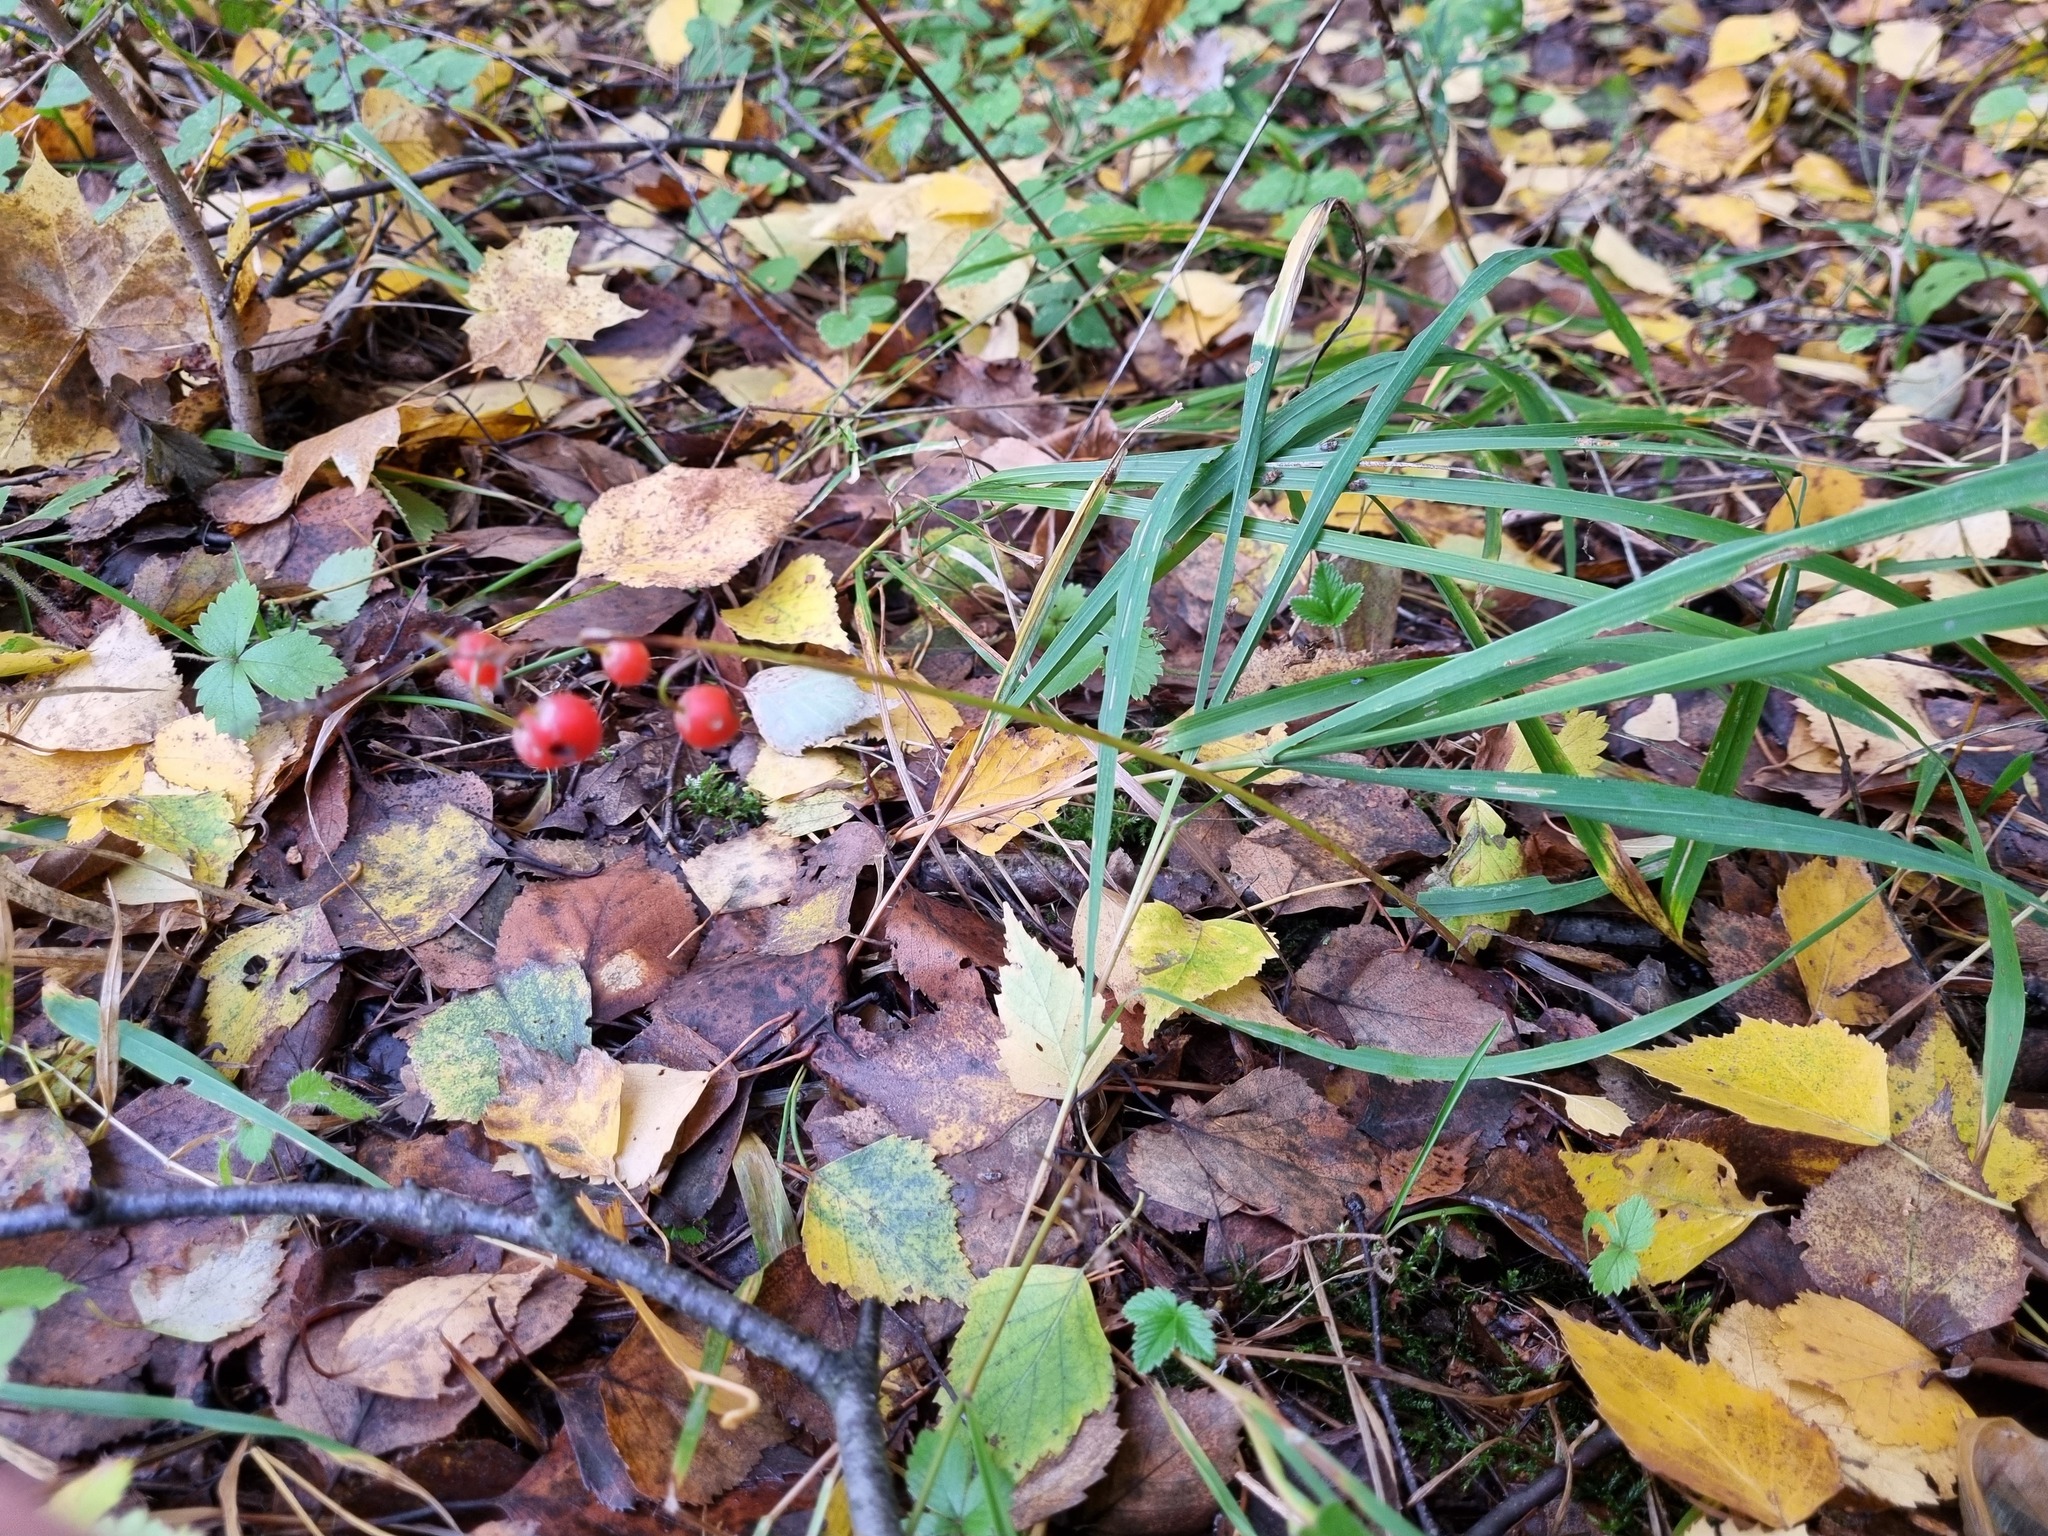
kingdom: Plantae
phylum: Tracheophyta
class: Liliopsida
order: Asparagales
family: Asparagaceae
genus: Convallaria
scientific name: Convallaria majalis
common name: Lily-of-the-valley
